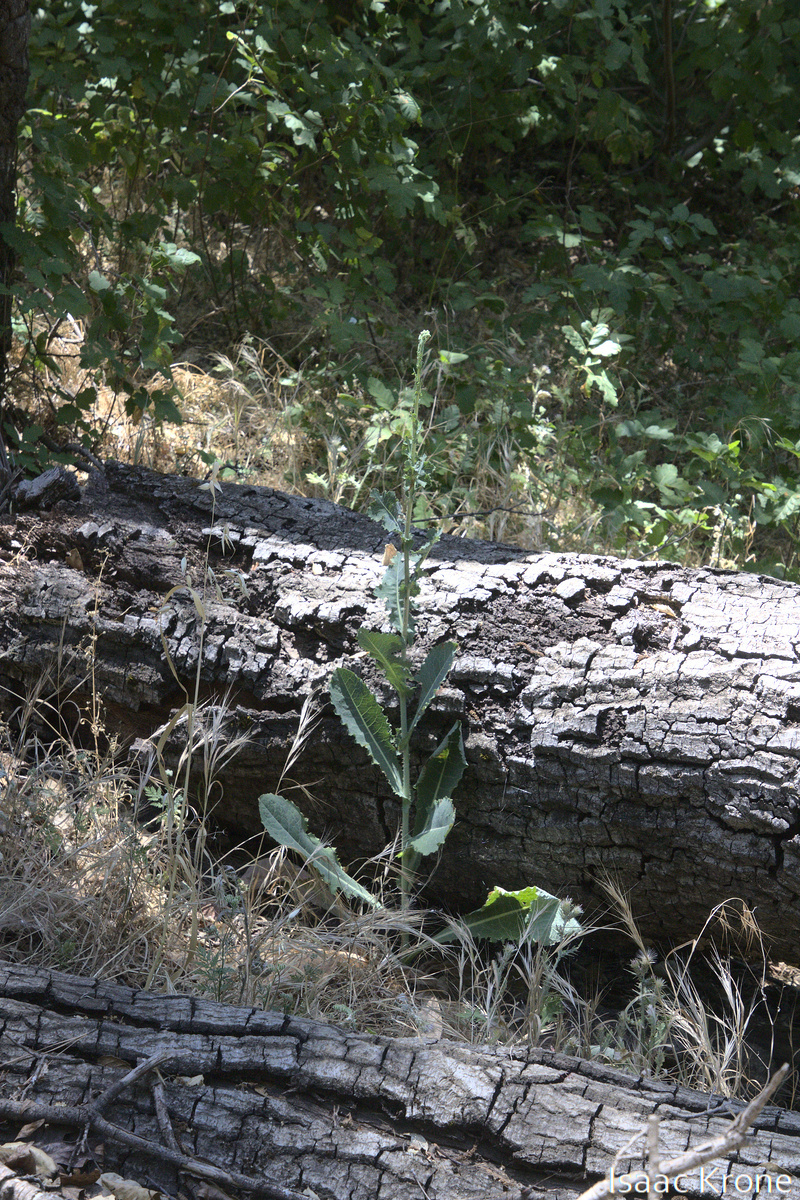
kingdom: Plantae
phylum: Tracheophyta
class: Magnoliopsida
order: Asterales
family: Asteraceae
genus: Lactuca
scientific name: Lactuca serriola
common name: Prickly lettuce
